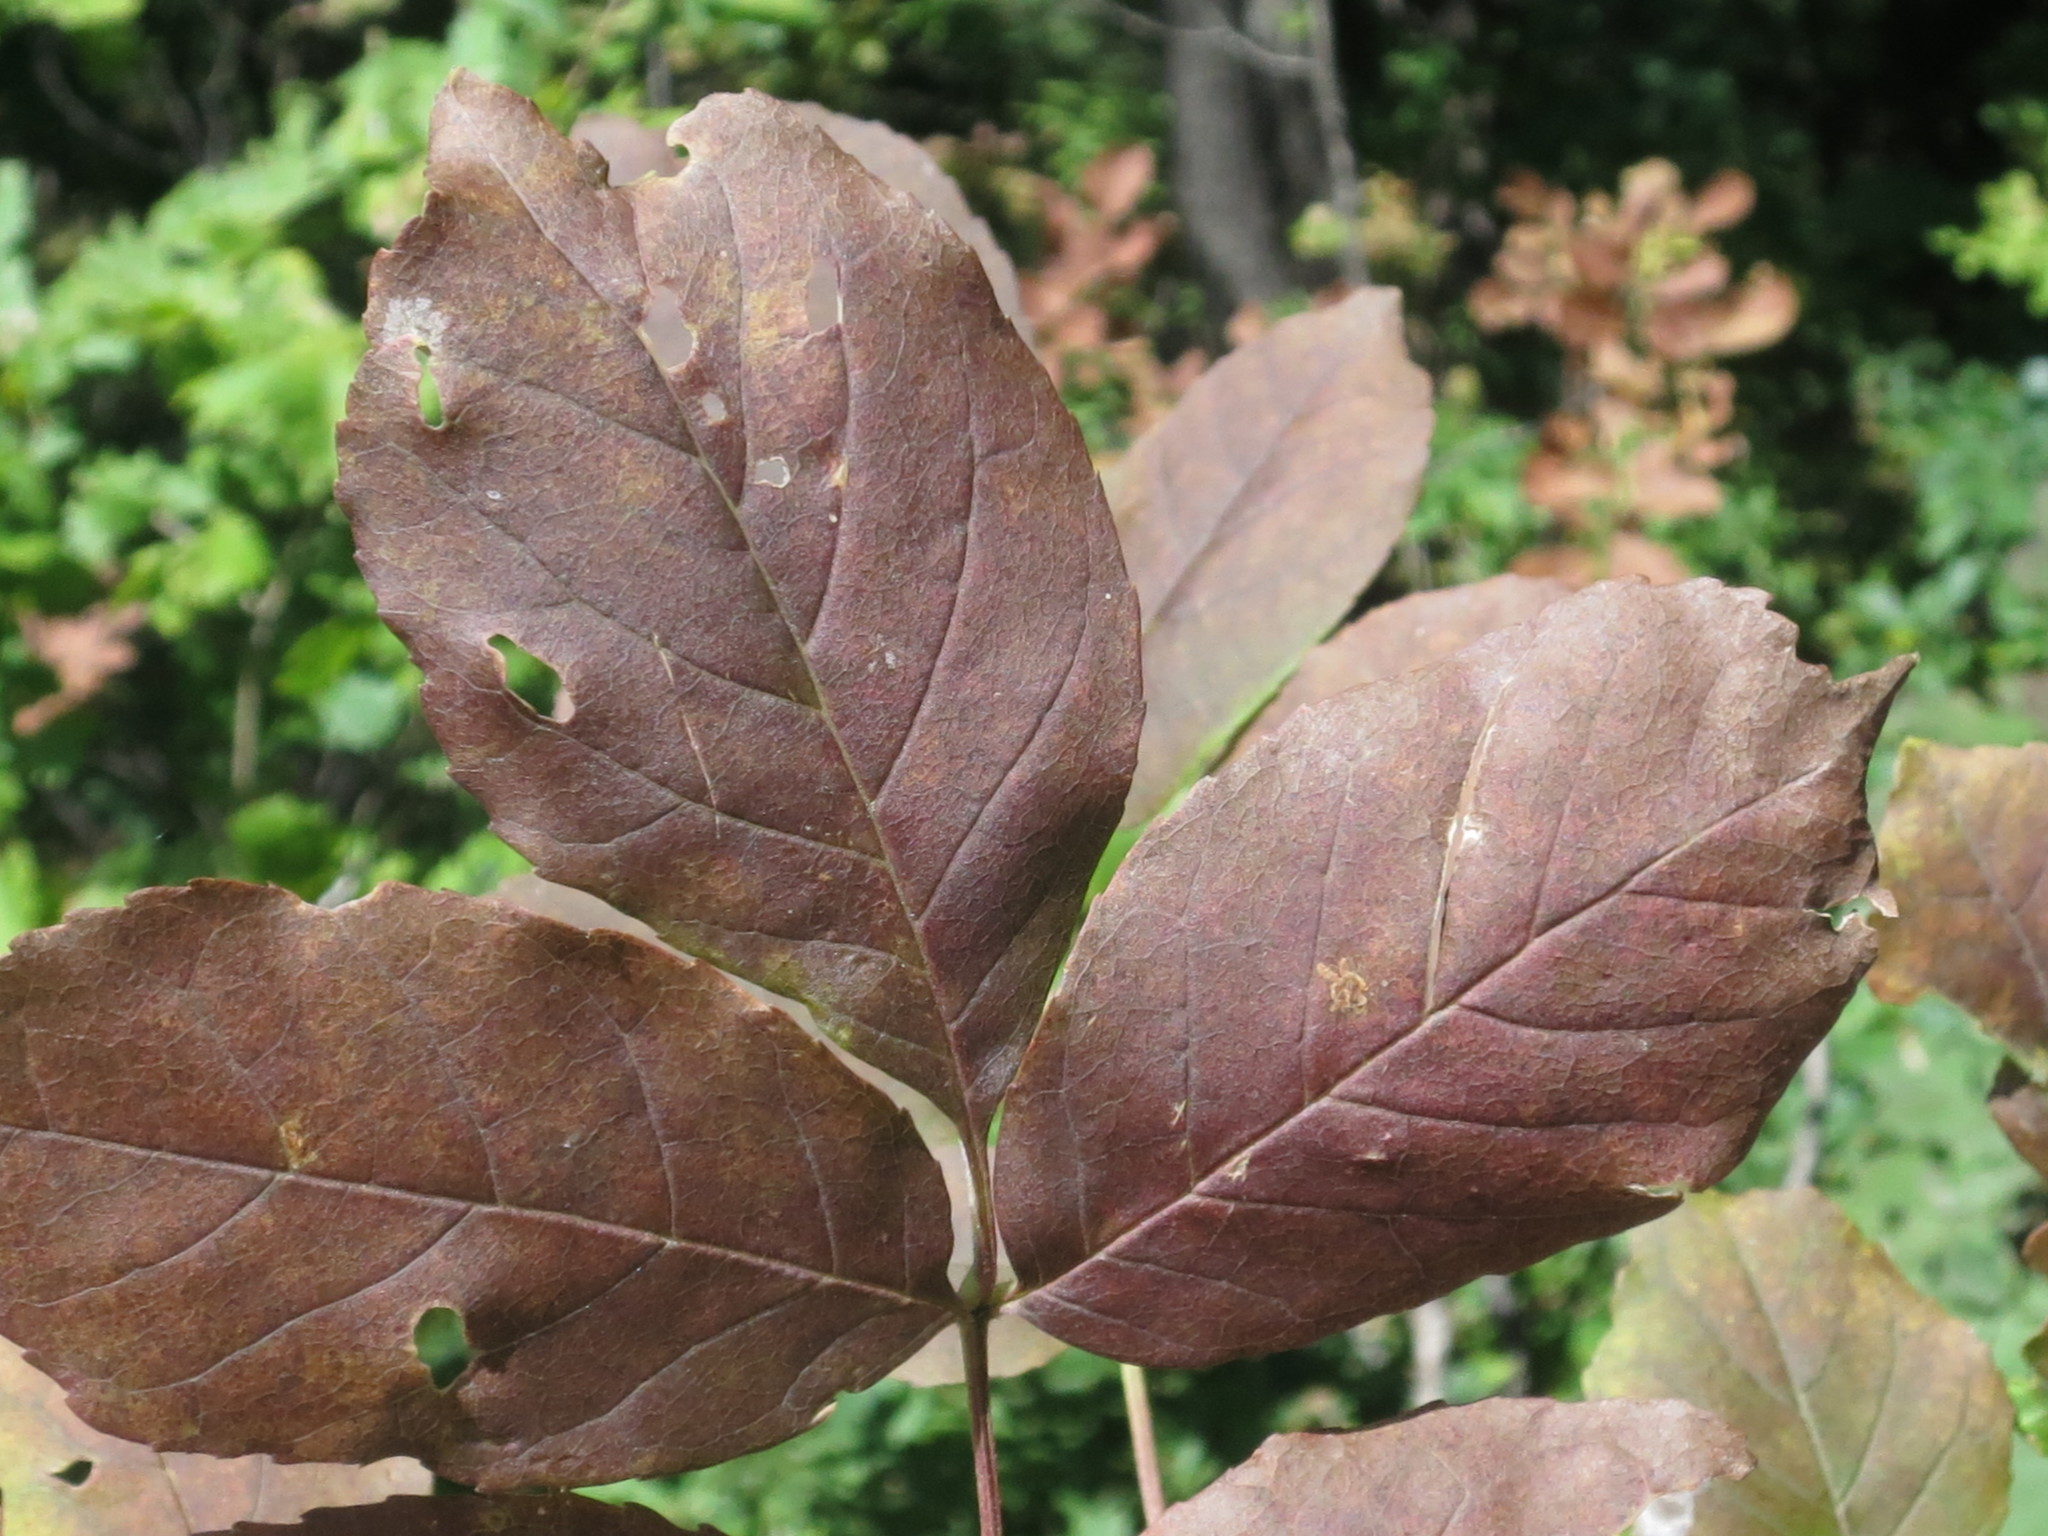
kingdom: Plantae
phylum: Tracheophyta
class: Magnoliopsida
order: Lamiales
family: Oleaceae
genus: Fraxinus
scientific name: Fraxinus chinensis
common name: Chinese ash
